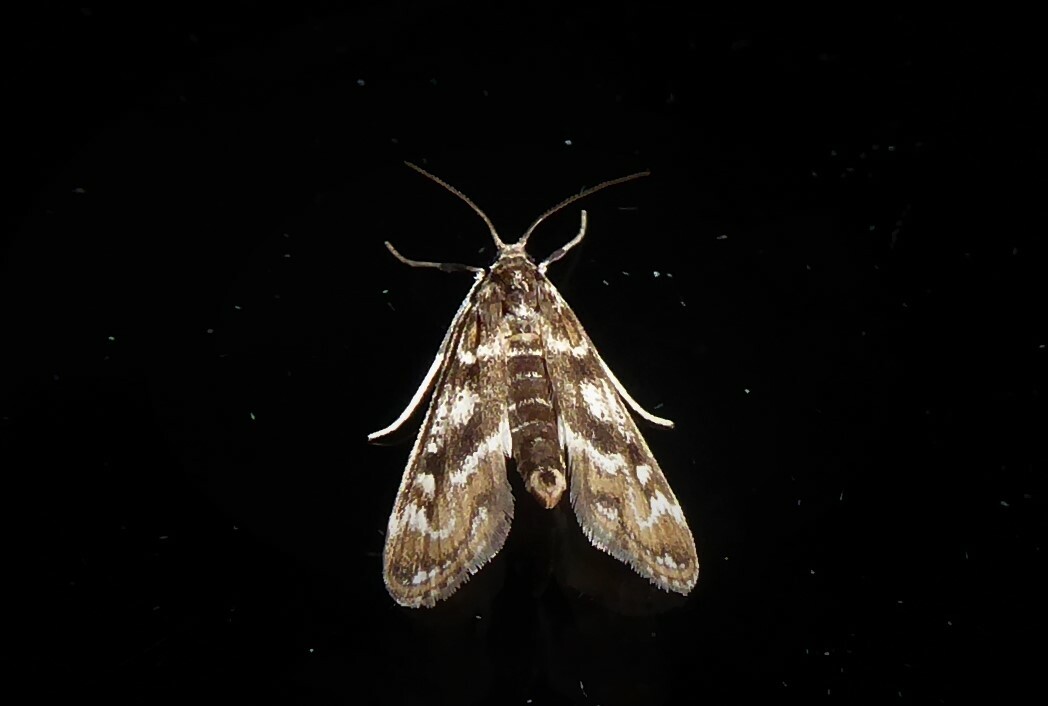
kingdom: Animalia
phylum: Arthropoda
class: Insecta
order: Lepidoptera
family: Crambidae
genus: Hygraula
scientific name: Hygraula nitens
